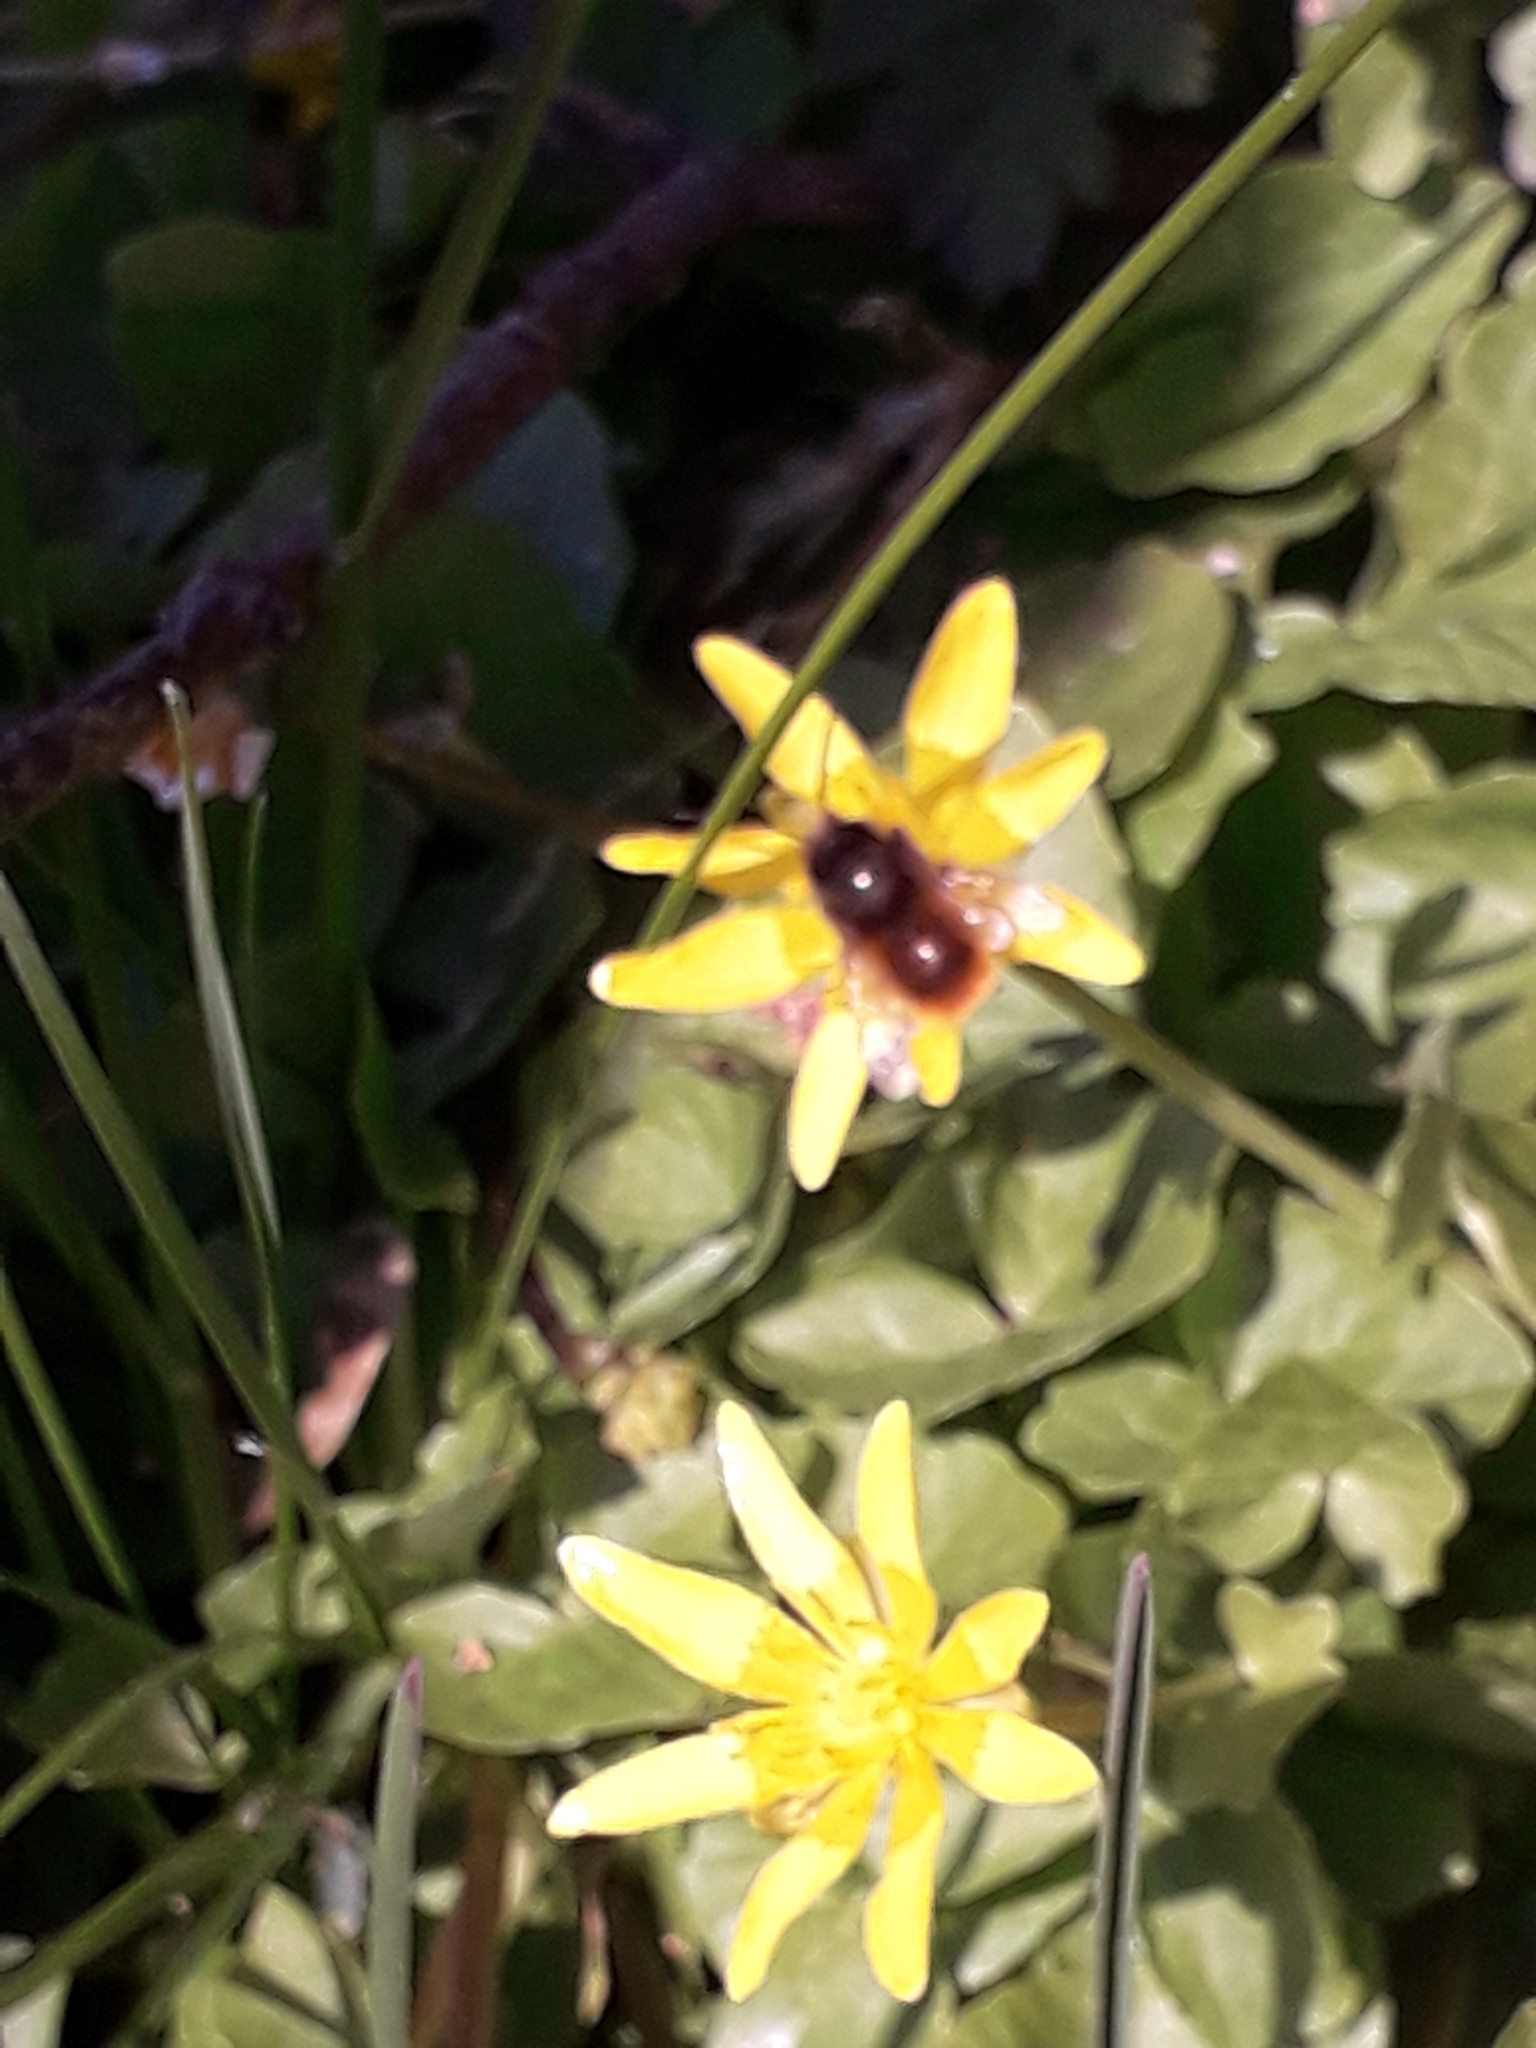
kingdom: Animalia
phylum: Arthropoda
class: Insecta
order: Hymenoptera
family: Megachilidae
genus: Osmia
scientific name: Osmia cornuta
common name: Mason bee
